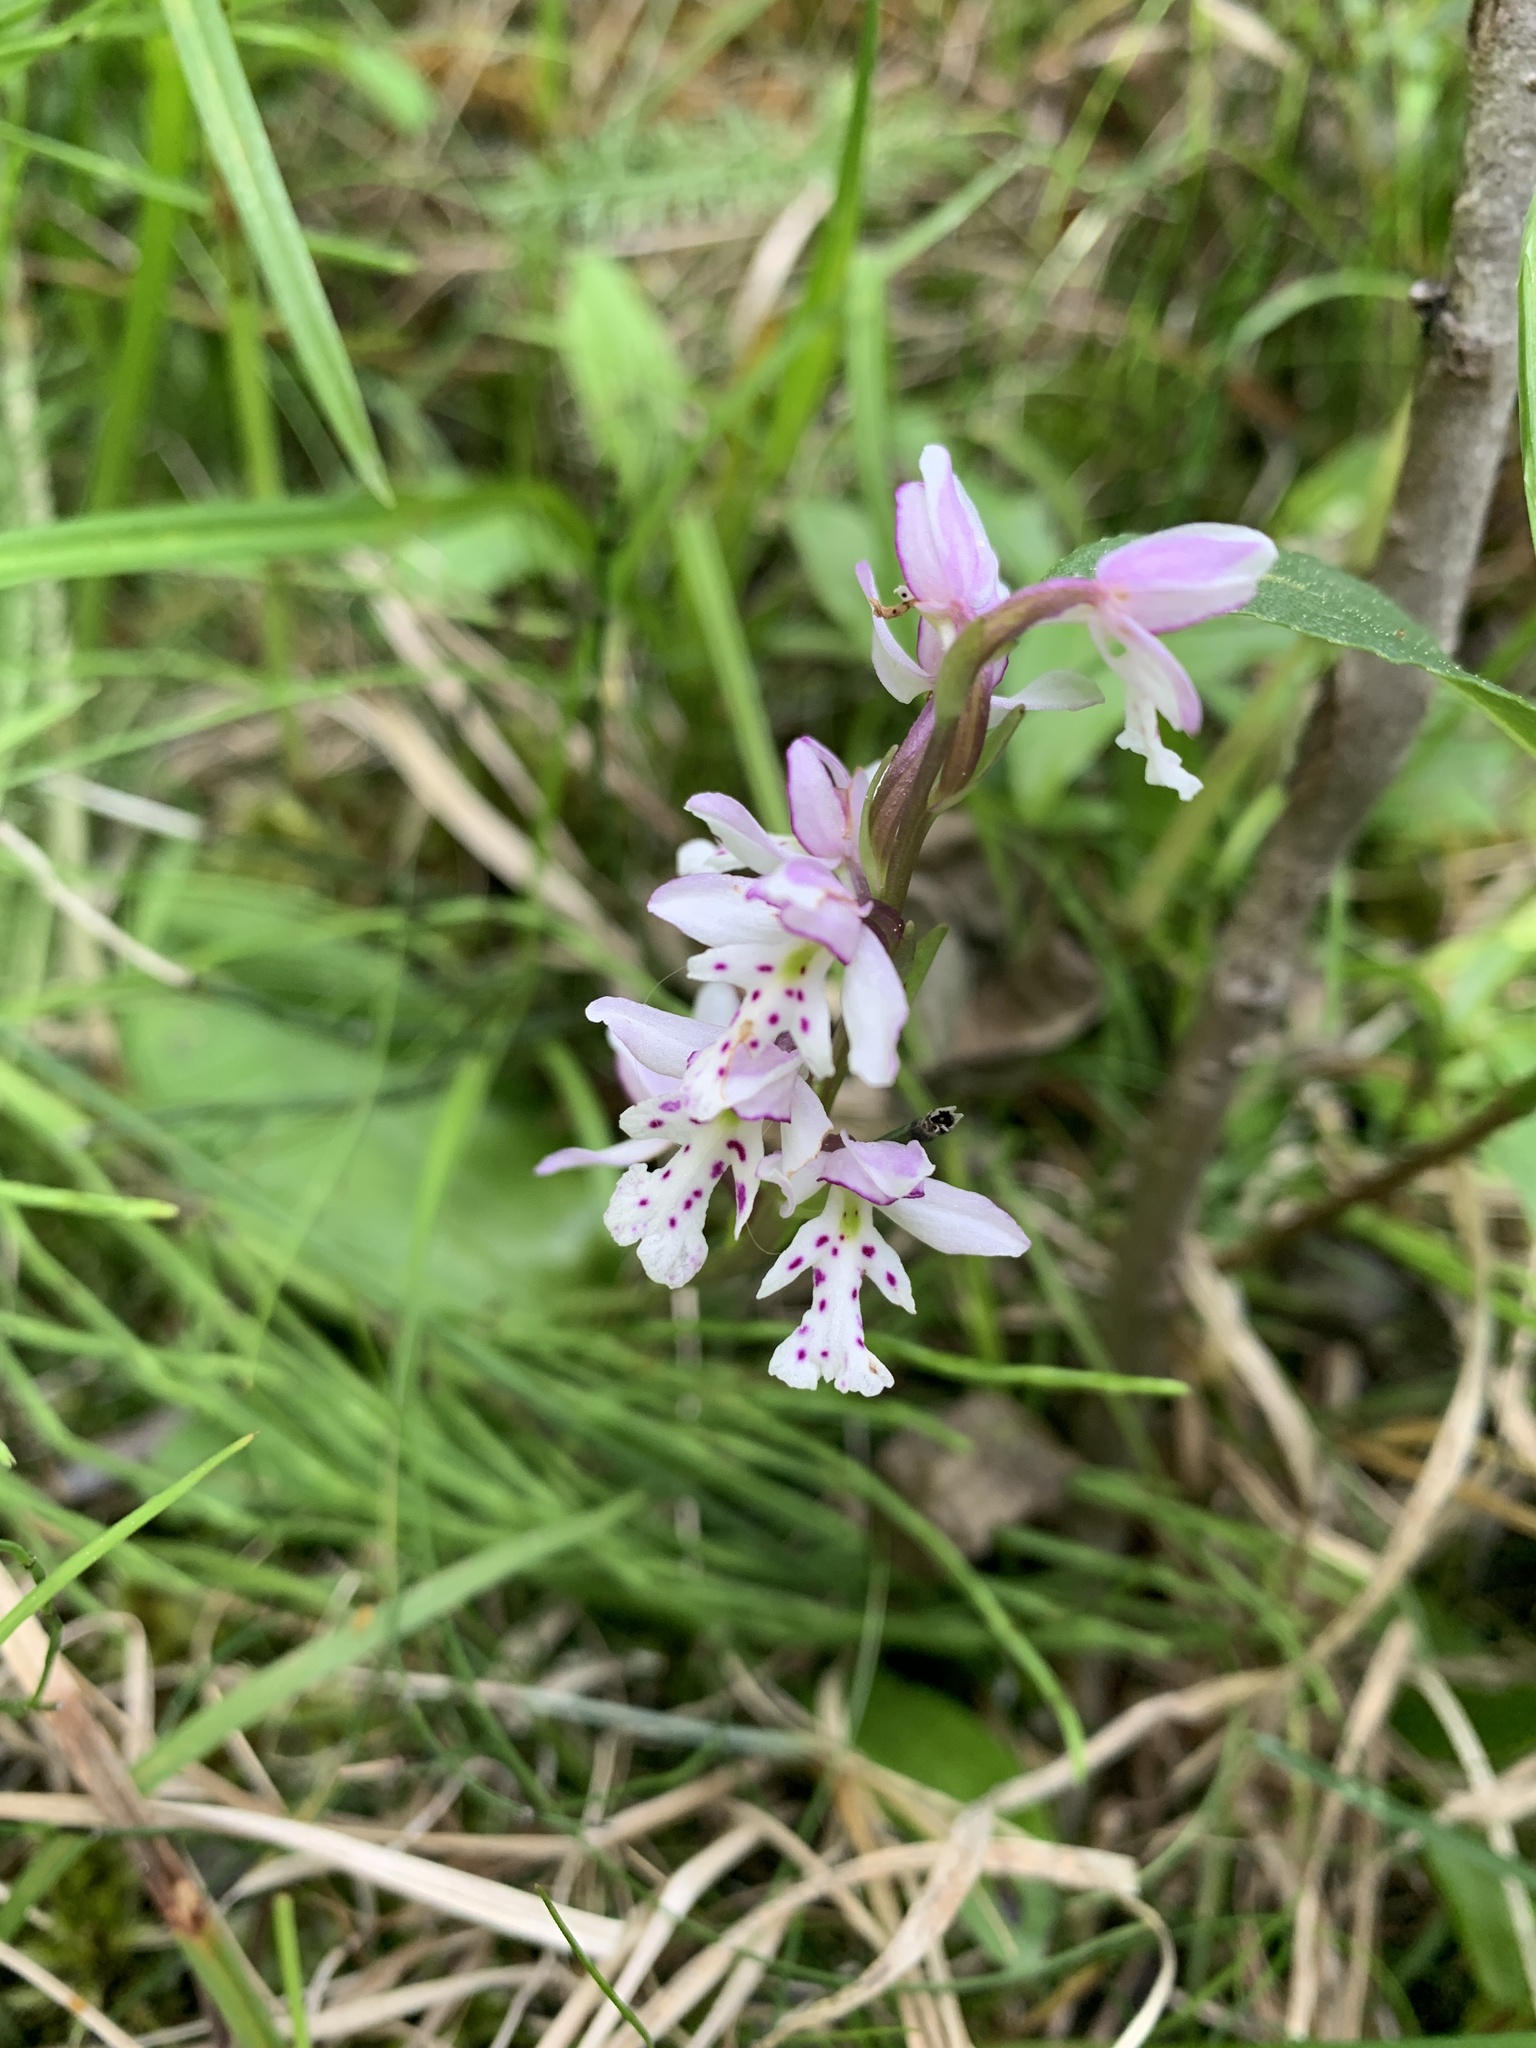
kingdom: Plantae
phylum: Tracheophyta
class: Liliopsida
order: Asparagales
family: Orchidaceae
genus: Galearis
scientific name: Galearis rotundifolia
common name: One-leaved orchis
